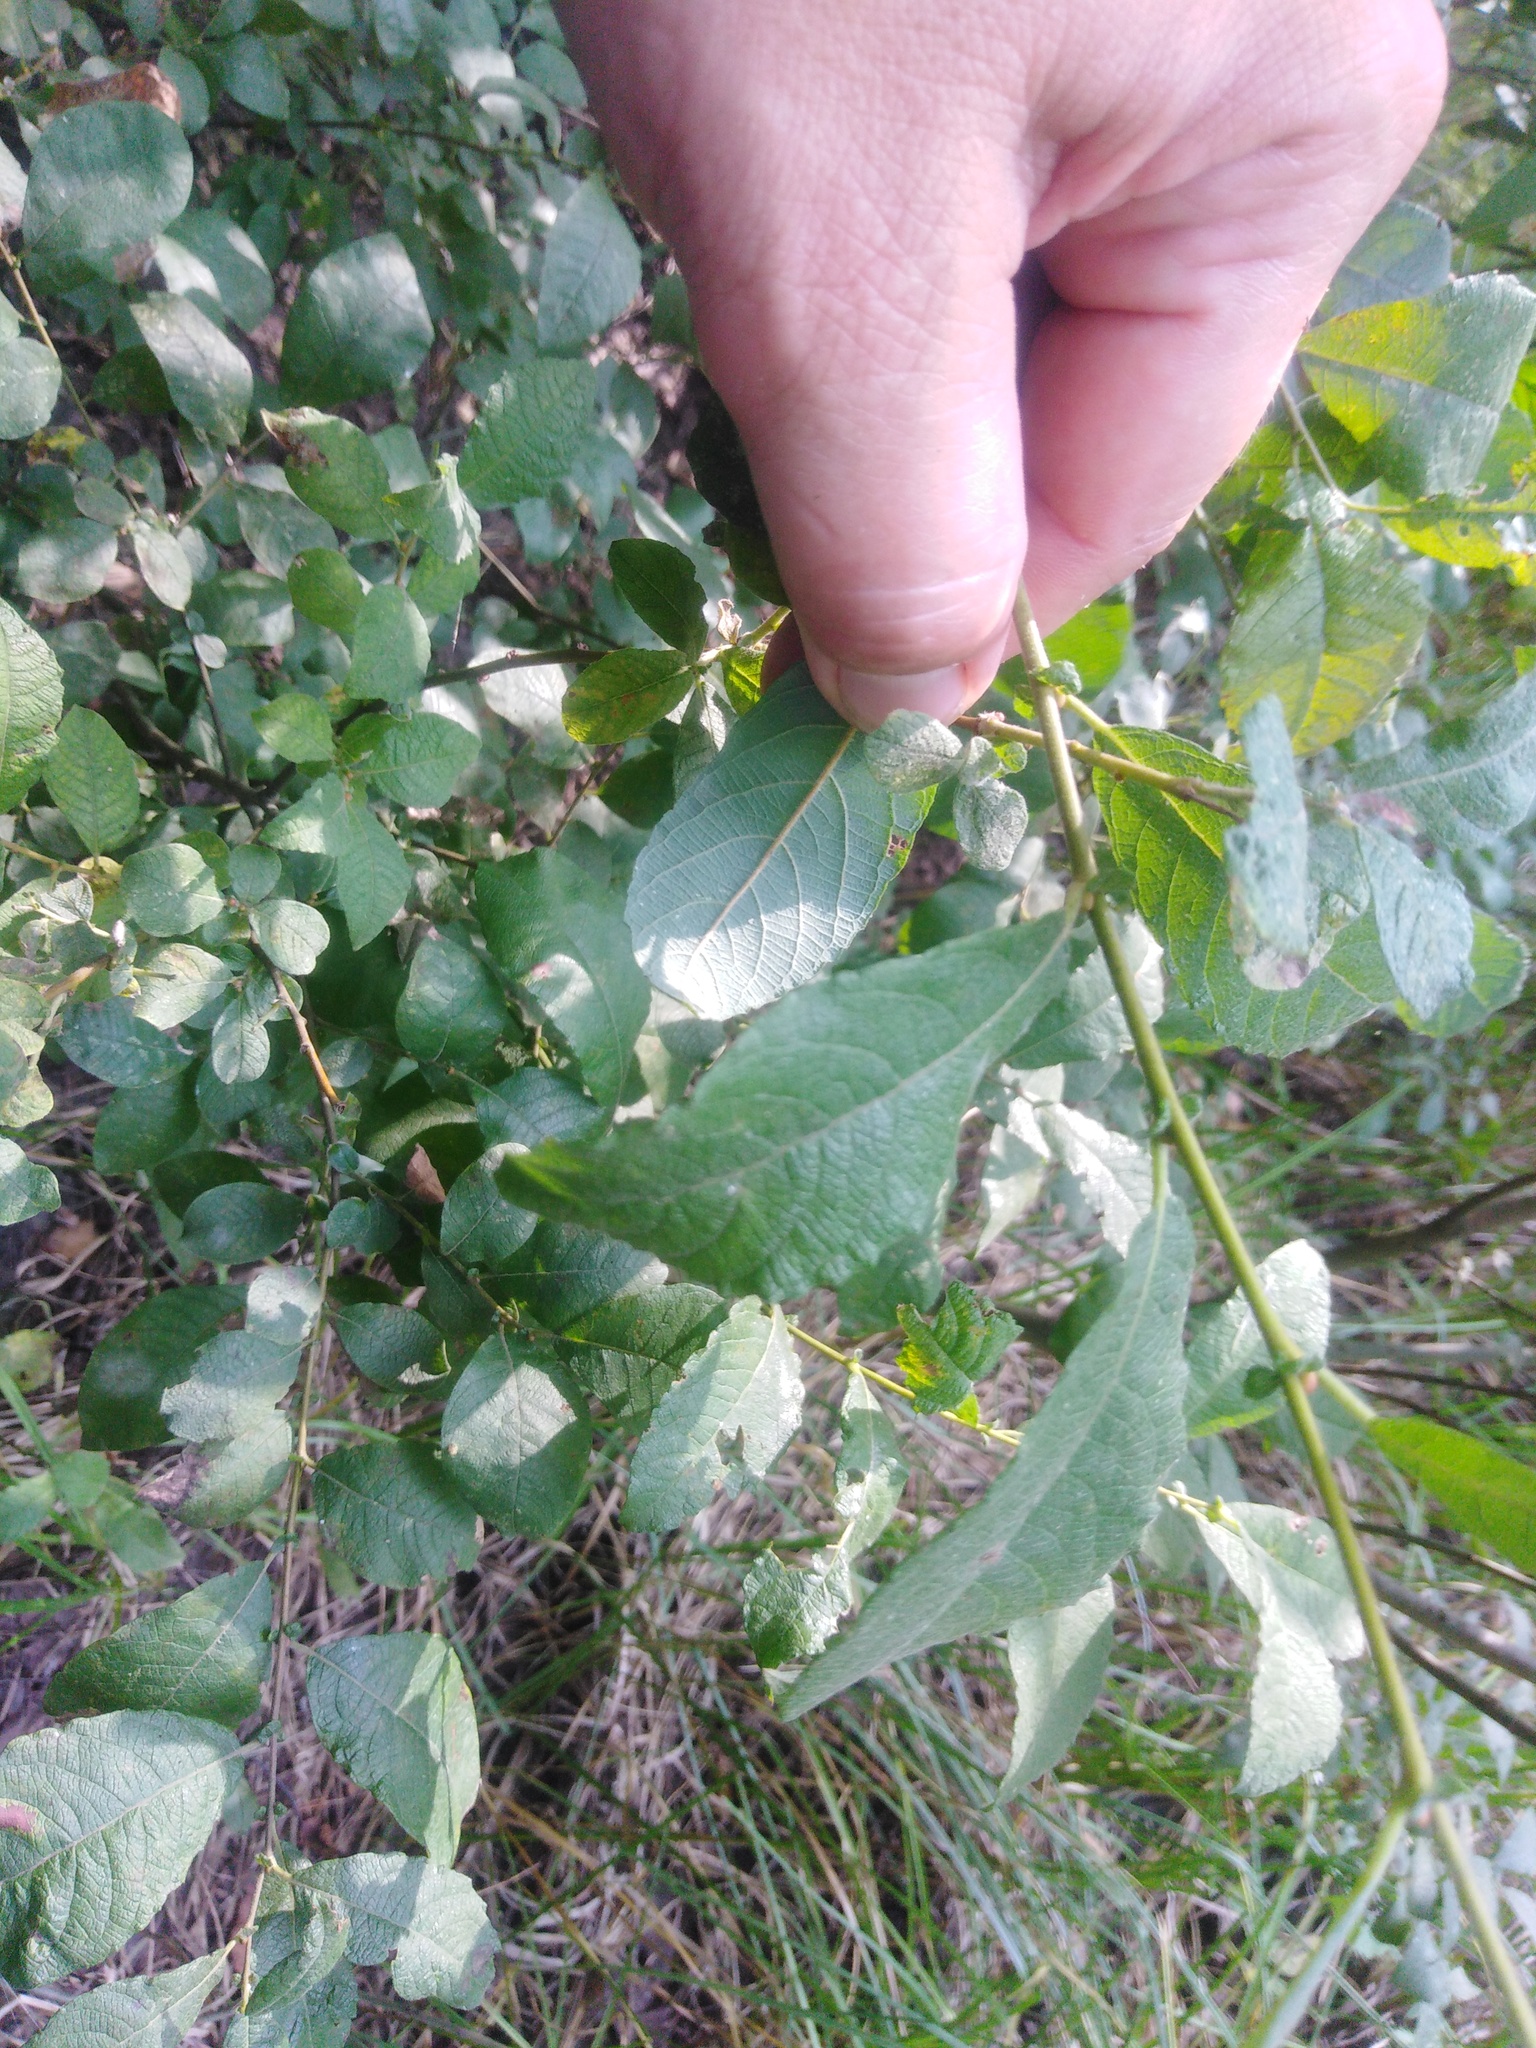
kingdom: Plantae
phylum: Tracheophyta
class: Magnoliopsida
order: Malpighiales
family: Salicaceae
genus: Salix
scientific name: Salix aurita
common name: Eared willow
